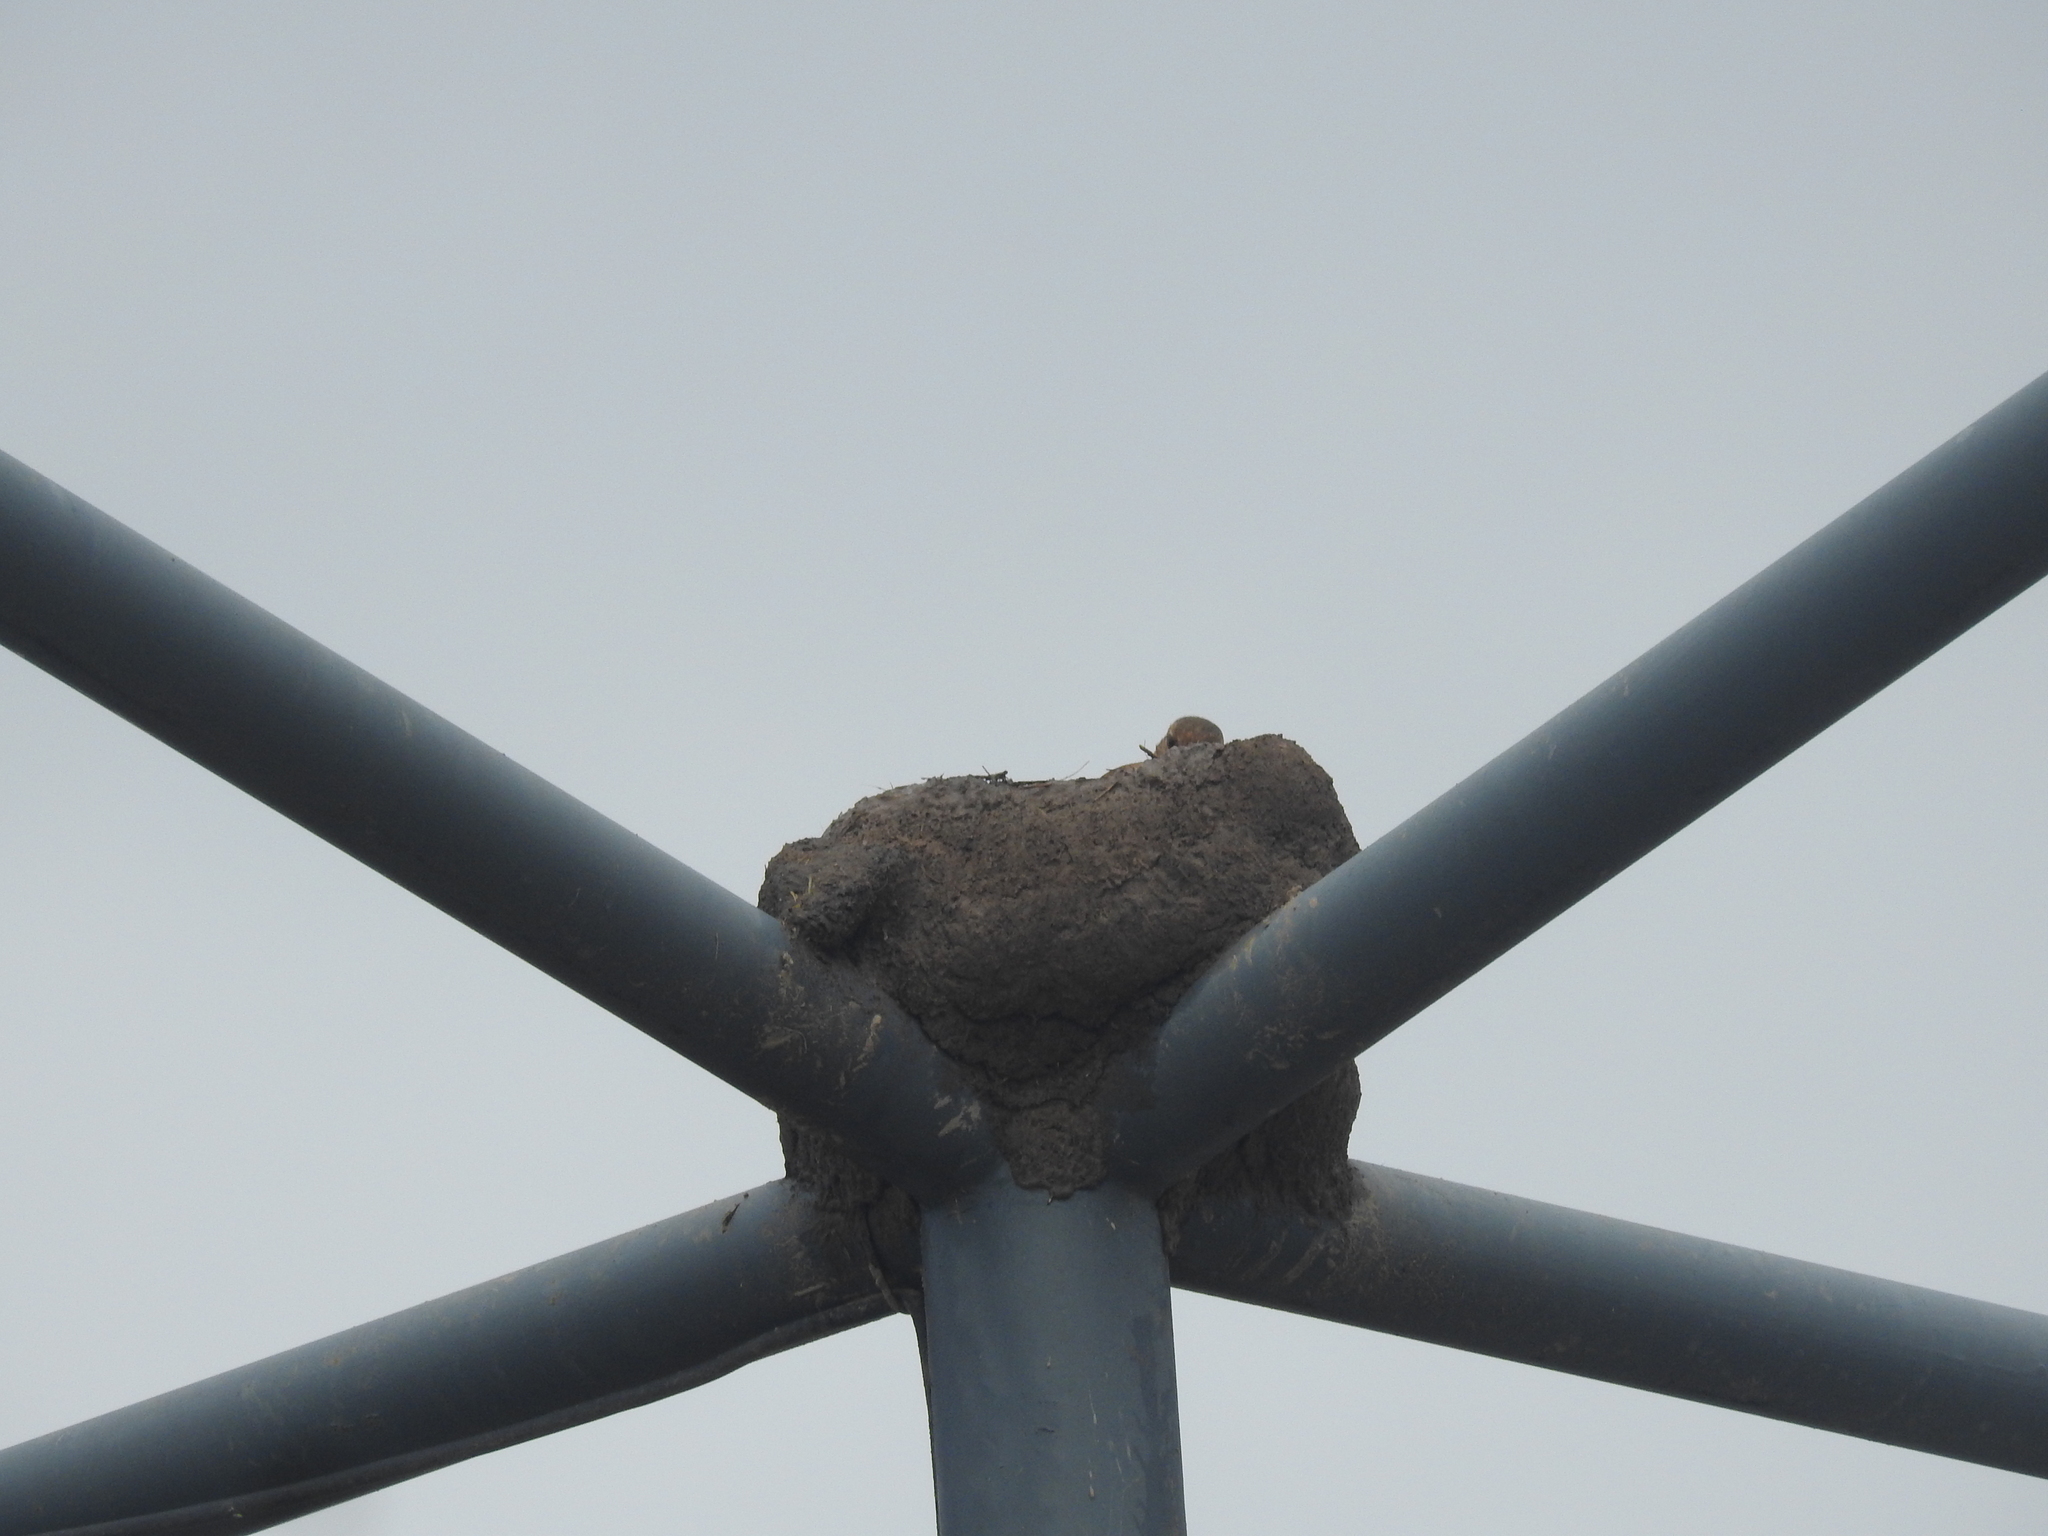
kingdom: Animalia
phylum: Chordata
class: Aves
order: Passeriformes
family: Furnariidae
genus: Furnarius
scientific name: Furnarius rufus
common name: Rufous hornero
